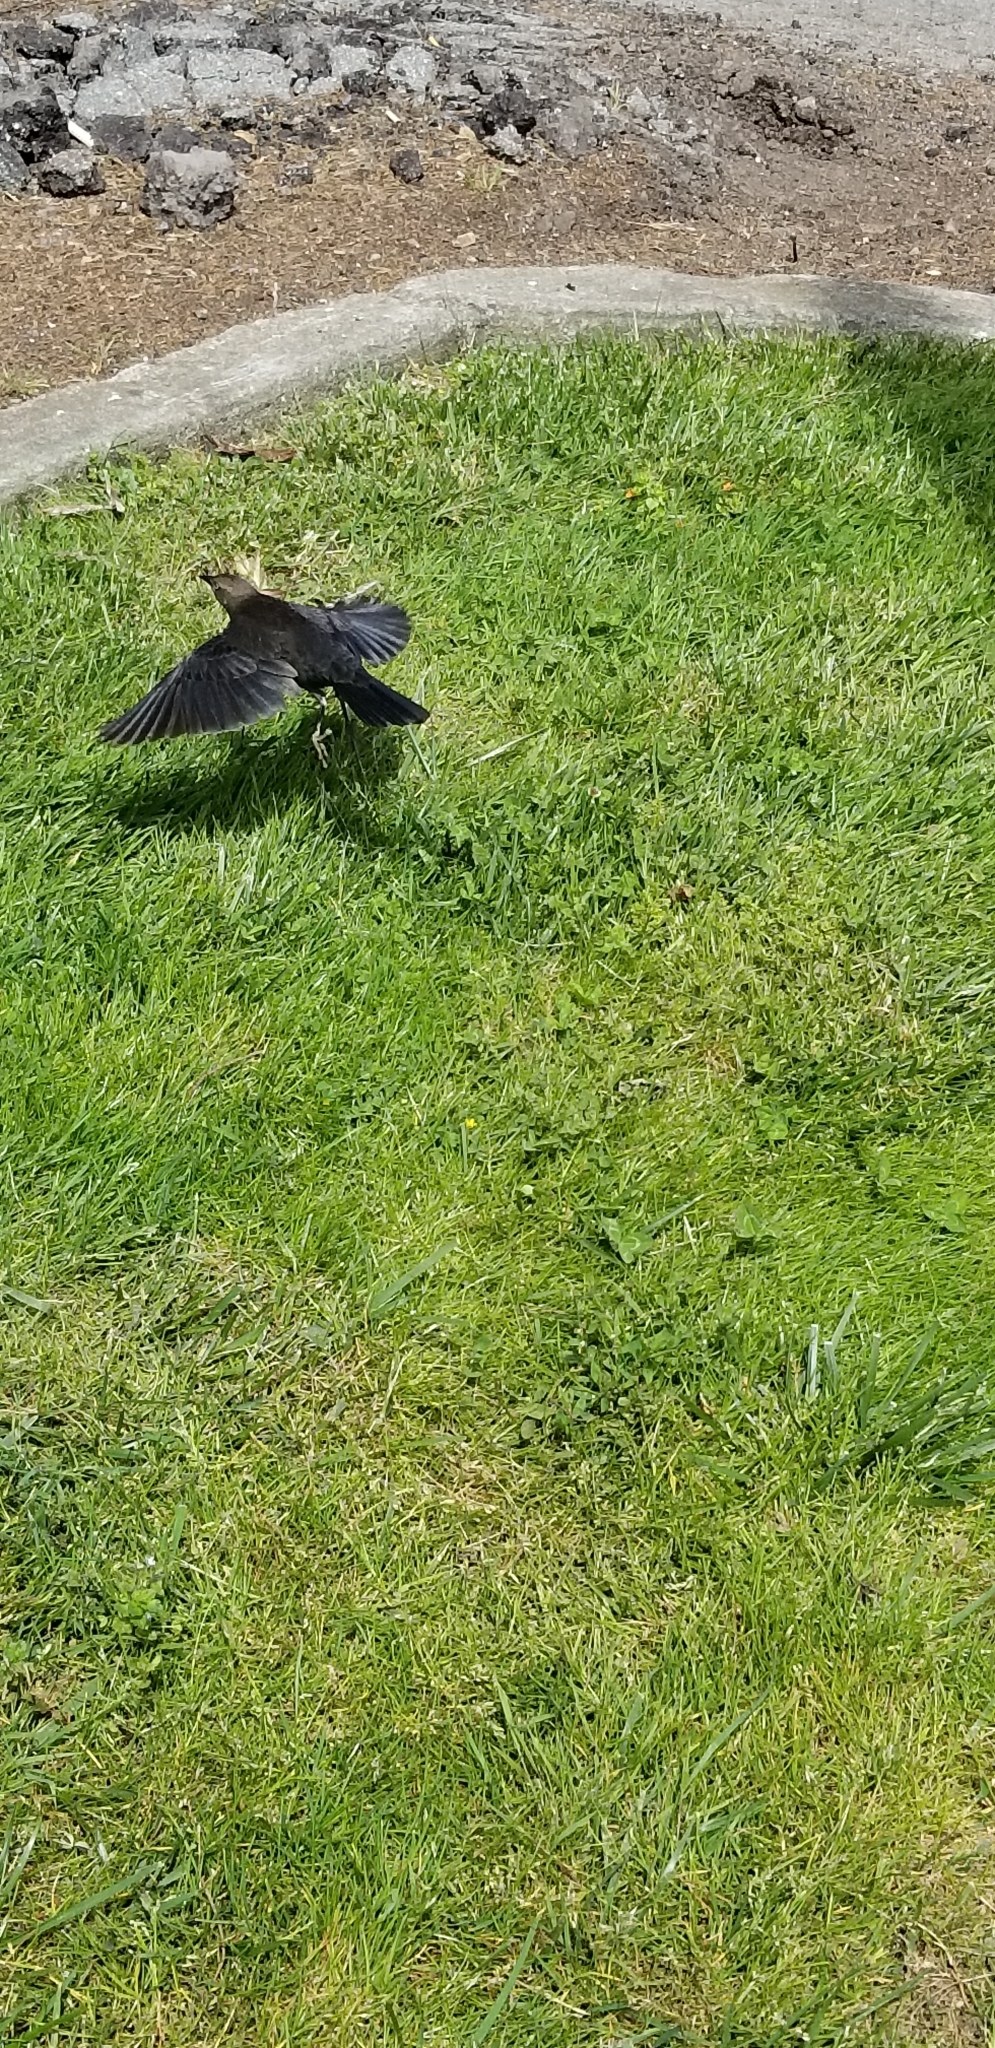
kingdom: Animalia
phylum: Chordata
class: Aves
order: Passeriformes
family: Icteridae
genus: Molothrus
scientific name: Molothrus ater
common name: Brown-headed cowbird
